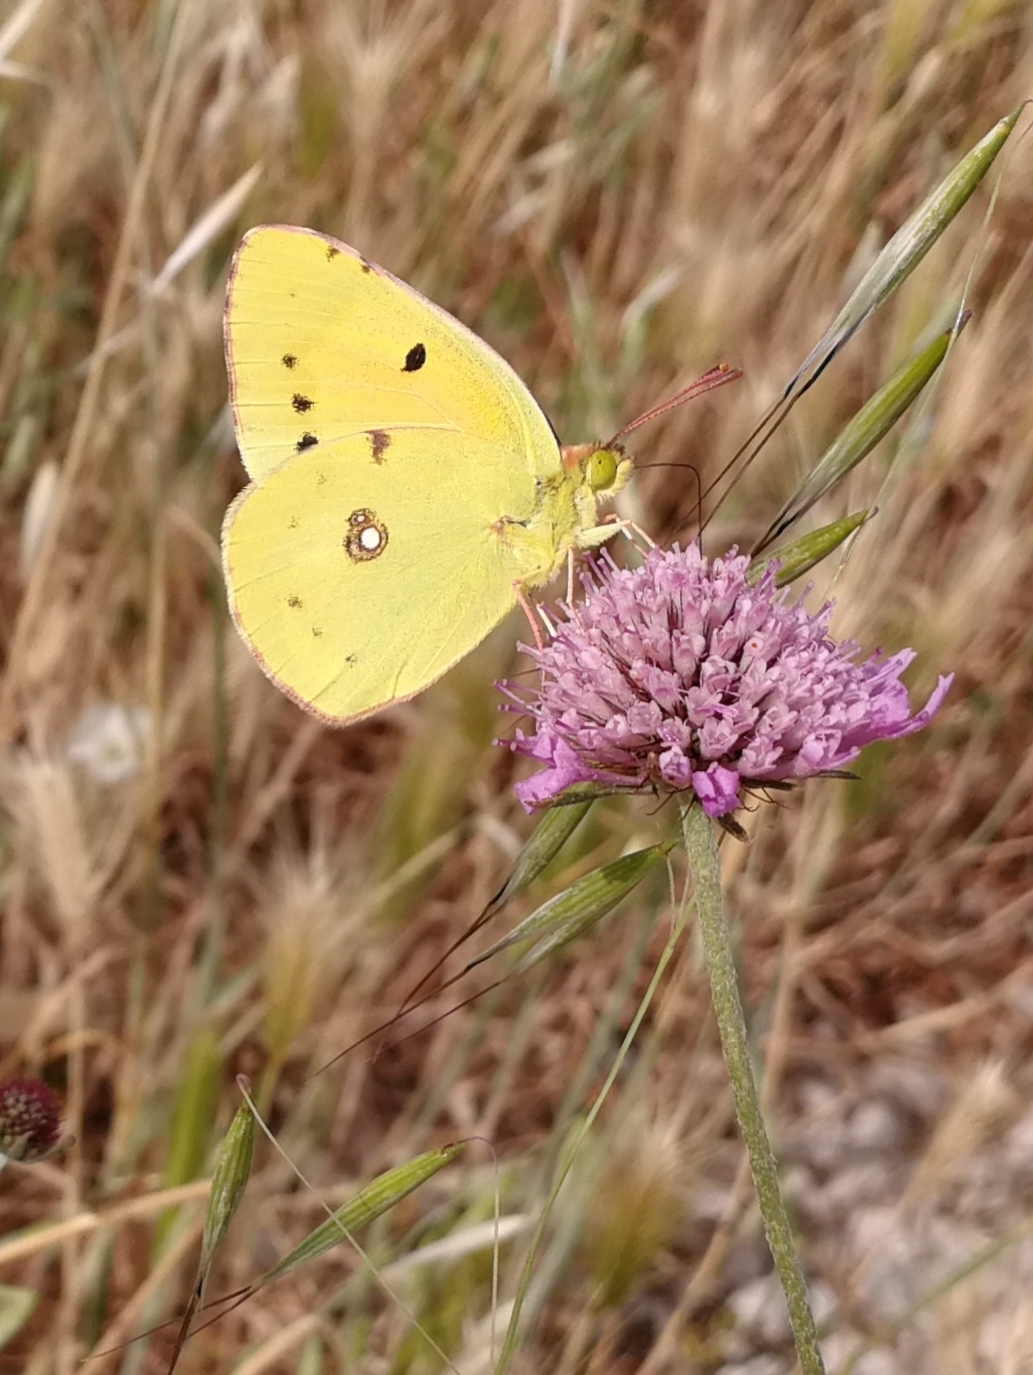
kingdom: Animalia
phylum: Arthropoda
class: Insecta
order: Lepidoptera
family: Pieridae
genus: Colias
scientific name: Colias croceus
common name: Clouded yellow
